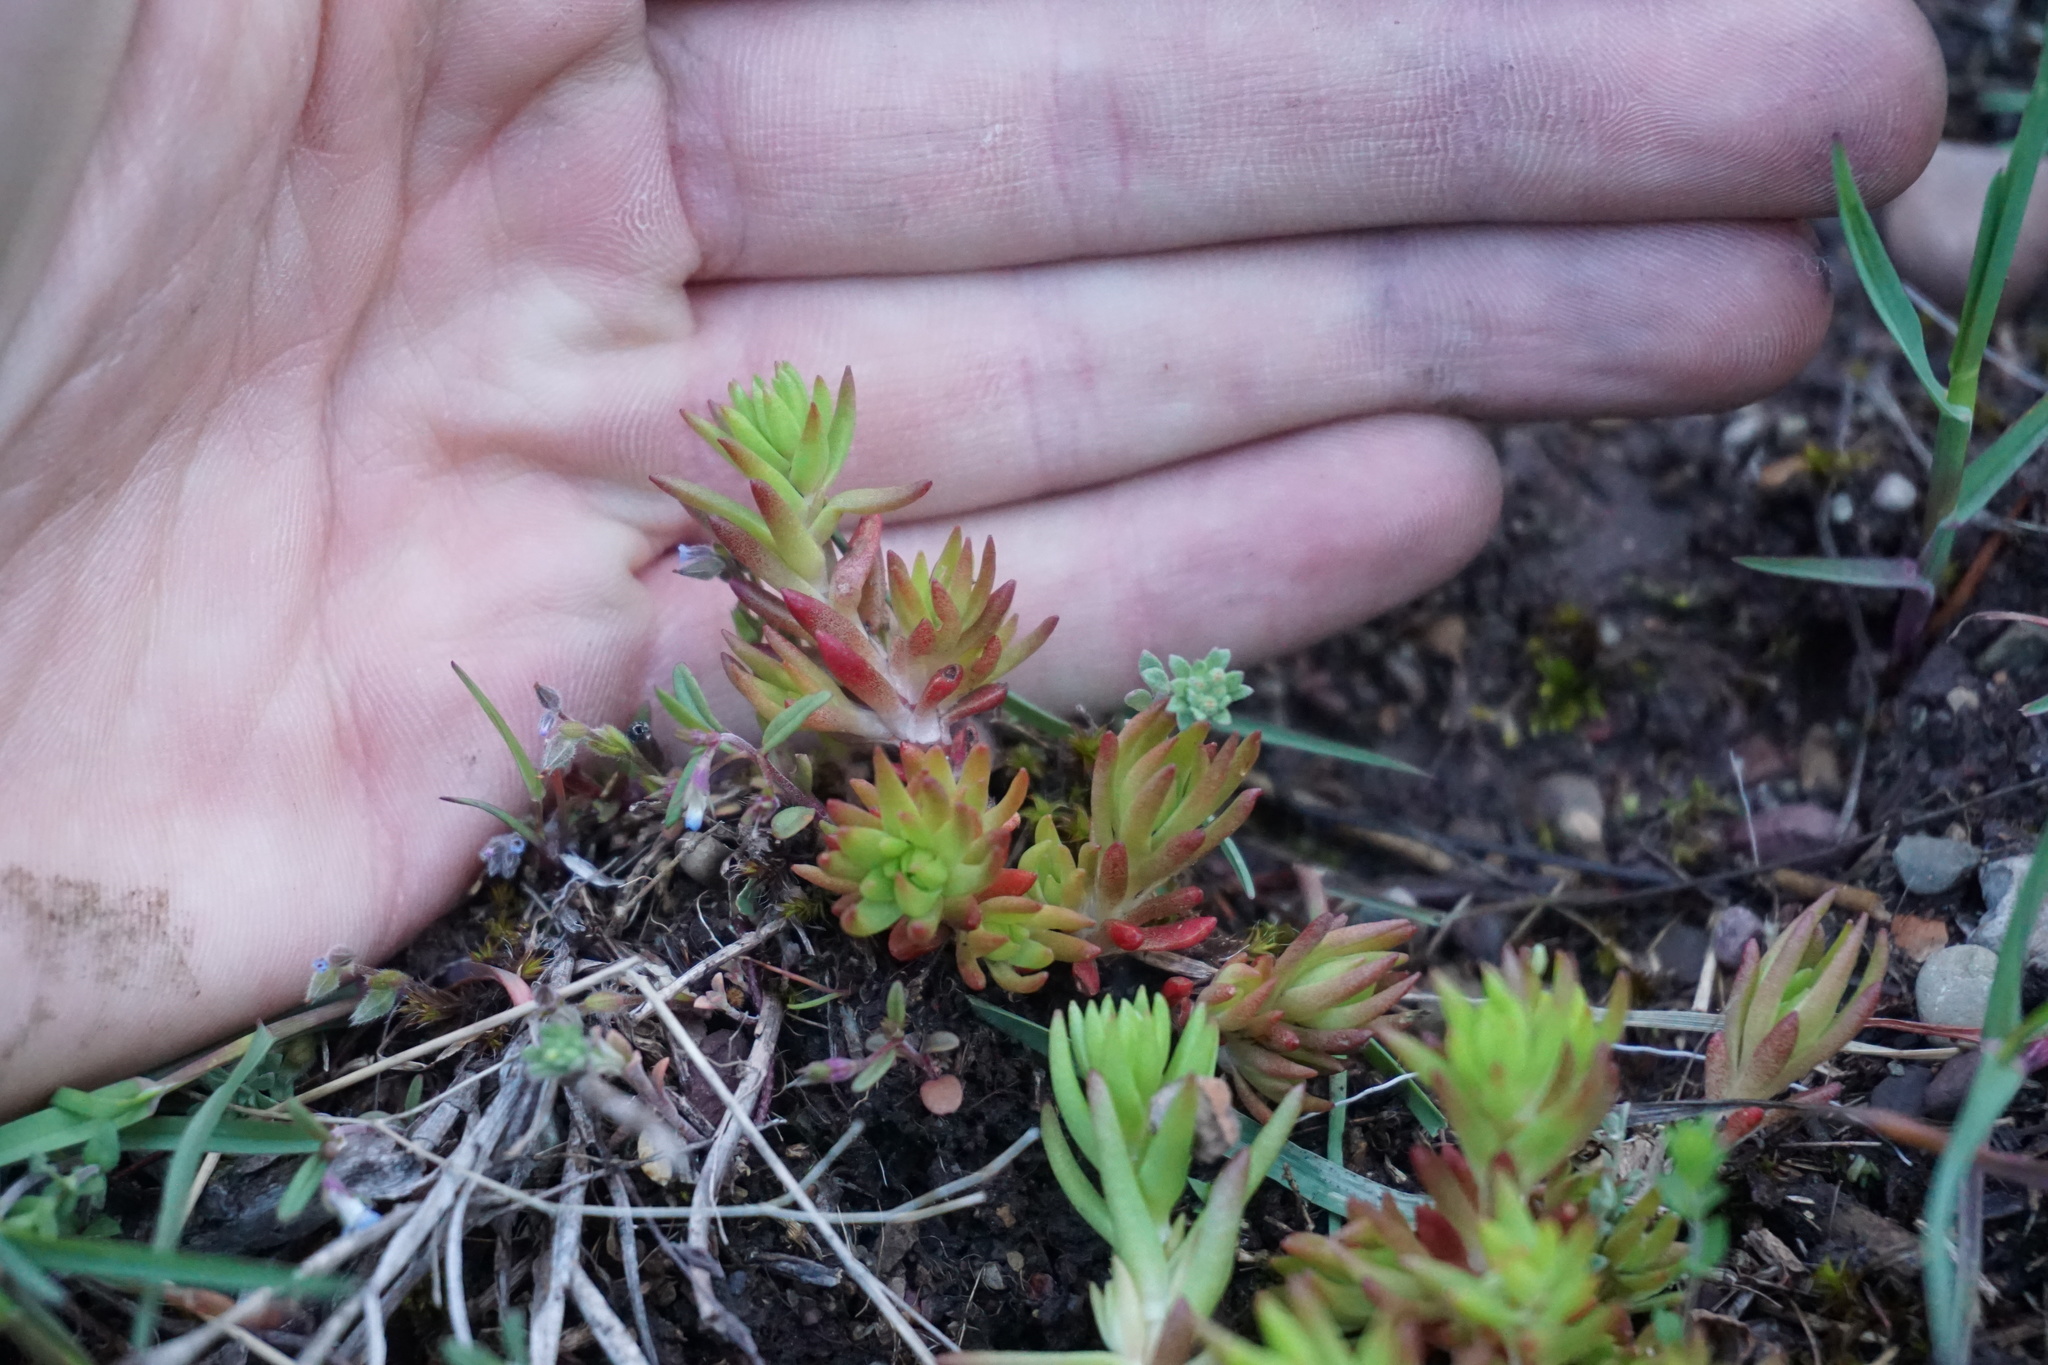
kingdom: Plantae
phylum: Tracheophyta
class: Magnoliopsida
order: Saxifragales
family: Crassulaceae
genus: Sedum
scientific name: Sedum stenopetalum
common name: Narrow-petaled stonecrop
